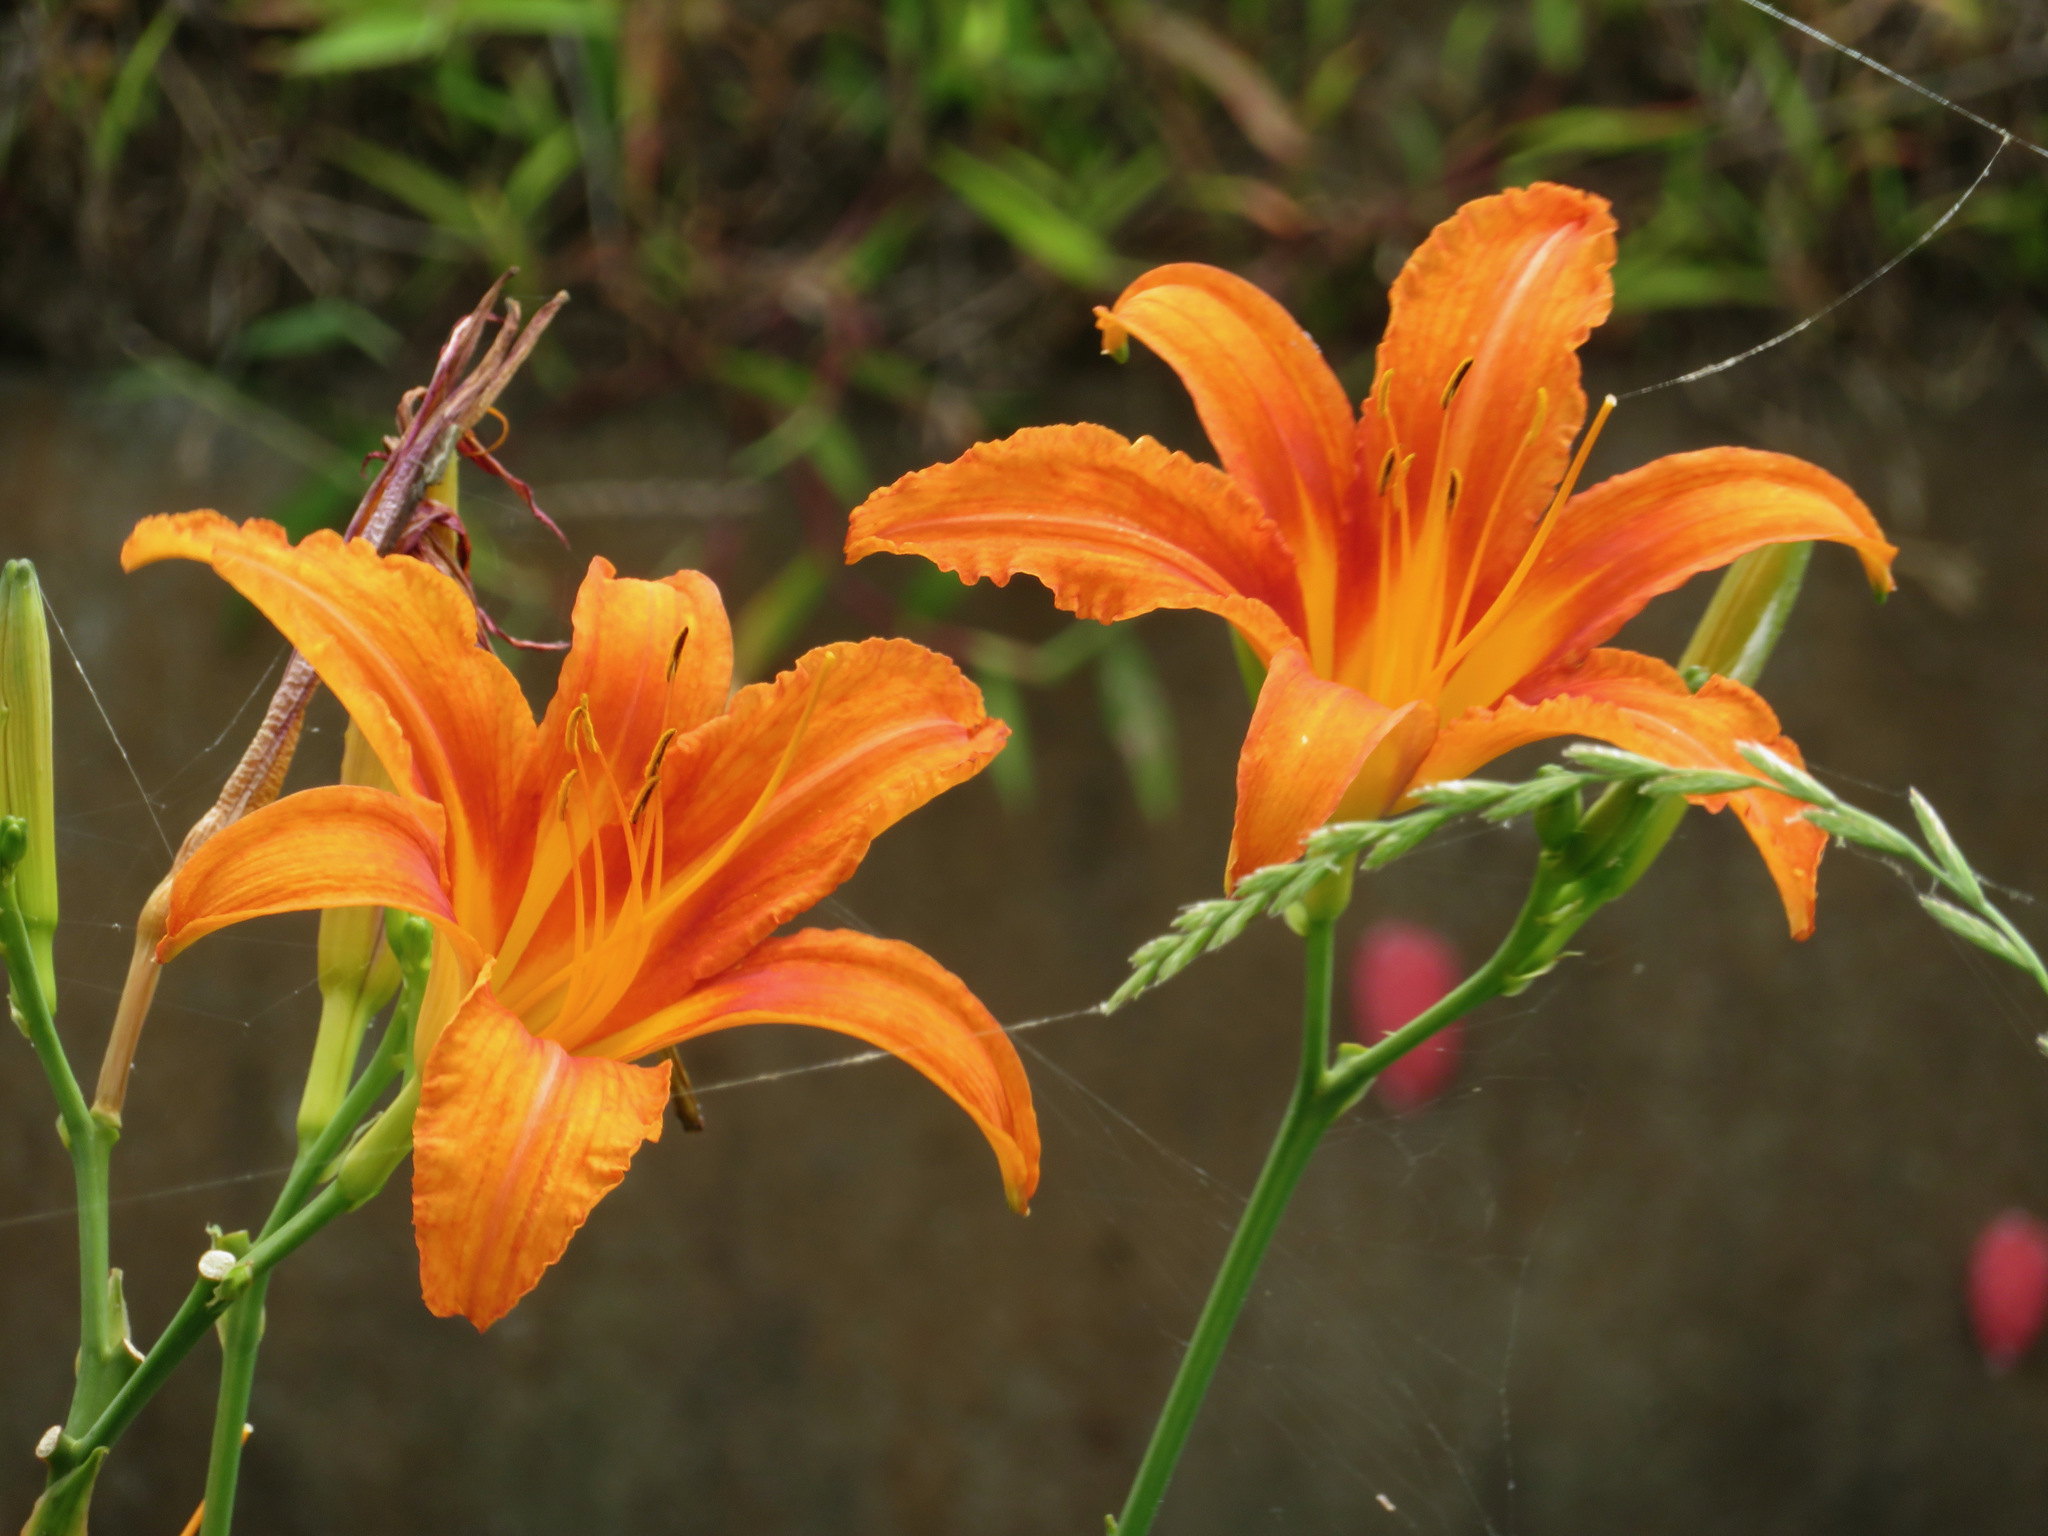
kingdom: Plantae
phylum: Tracheophyta
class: Liliopsida
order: Asparagales
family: Asphodelaceae
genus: Hemerocallis
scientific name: Hemerocallis fulva
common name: Orange day-lily
